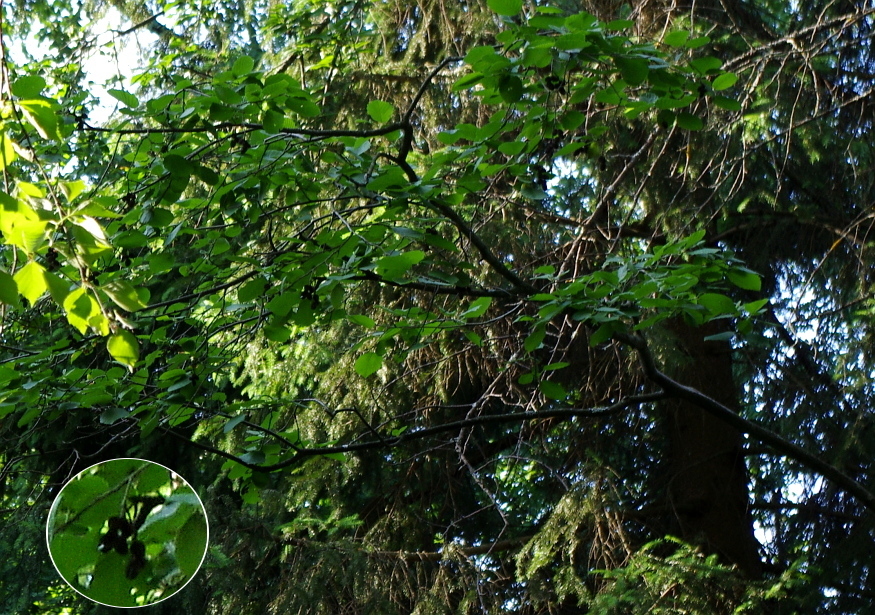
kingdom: Plantae
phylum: Tracheophyta
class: Magnoliopsida
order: Fagales
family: Betulaceae
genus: Alnus
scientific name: Alnus incana
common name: Grey alder
